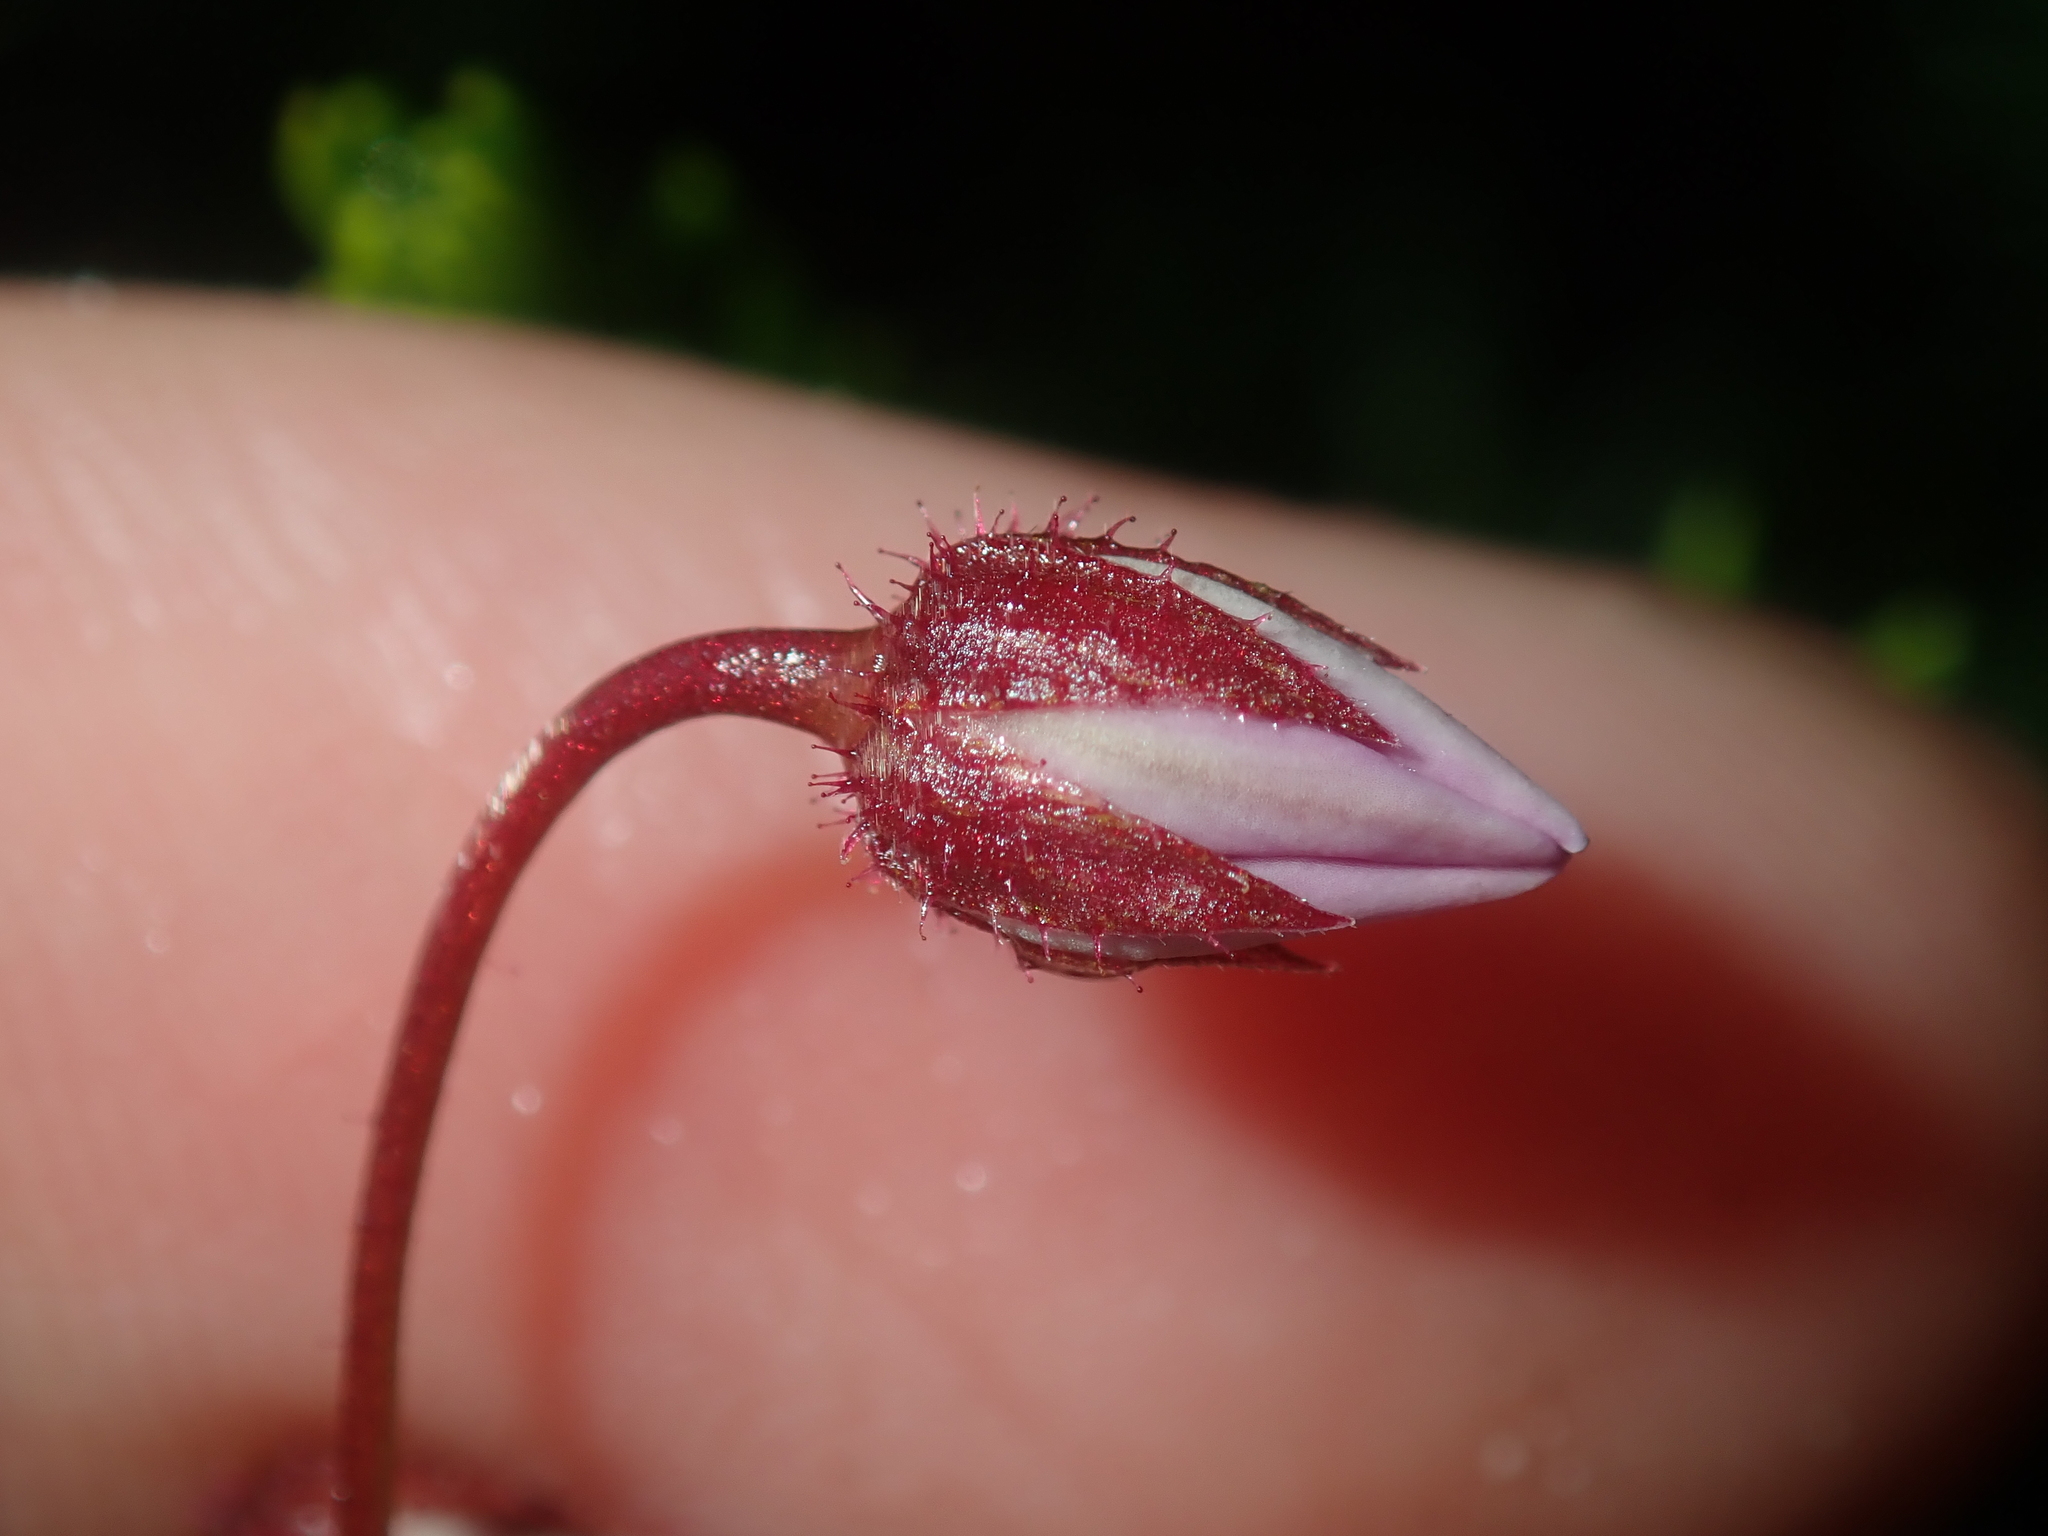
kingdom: Plantae
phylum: Tracheophyta
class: Magnoliopsida
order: Oxalidales
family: Elaeocarpaceae
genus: Tetratheca
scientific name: Tetratheca confertifolia
